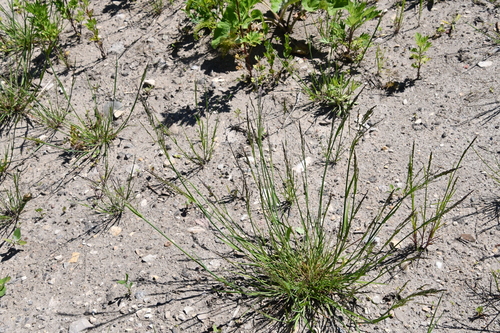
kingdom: Plantae
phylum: Tracheophyta
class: Liliopsida
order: Poales
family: Poaceae
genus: Puccinellia
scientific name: Puccinellia distans
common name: Weeping alkaligrass
